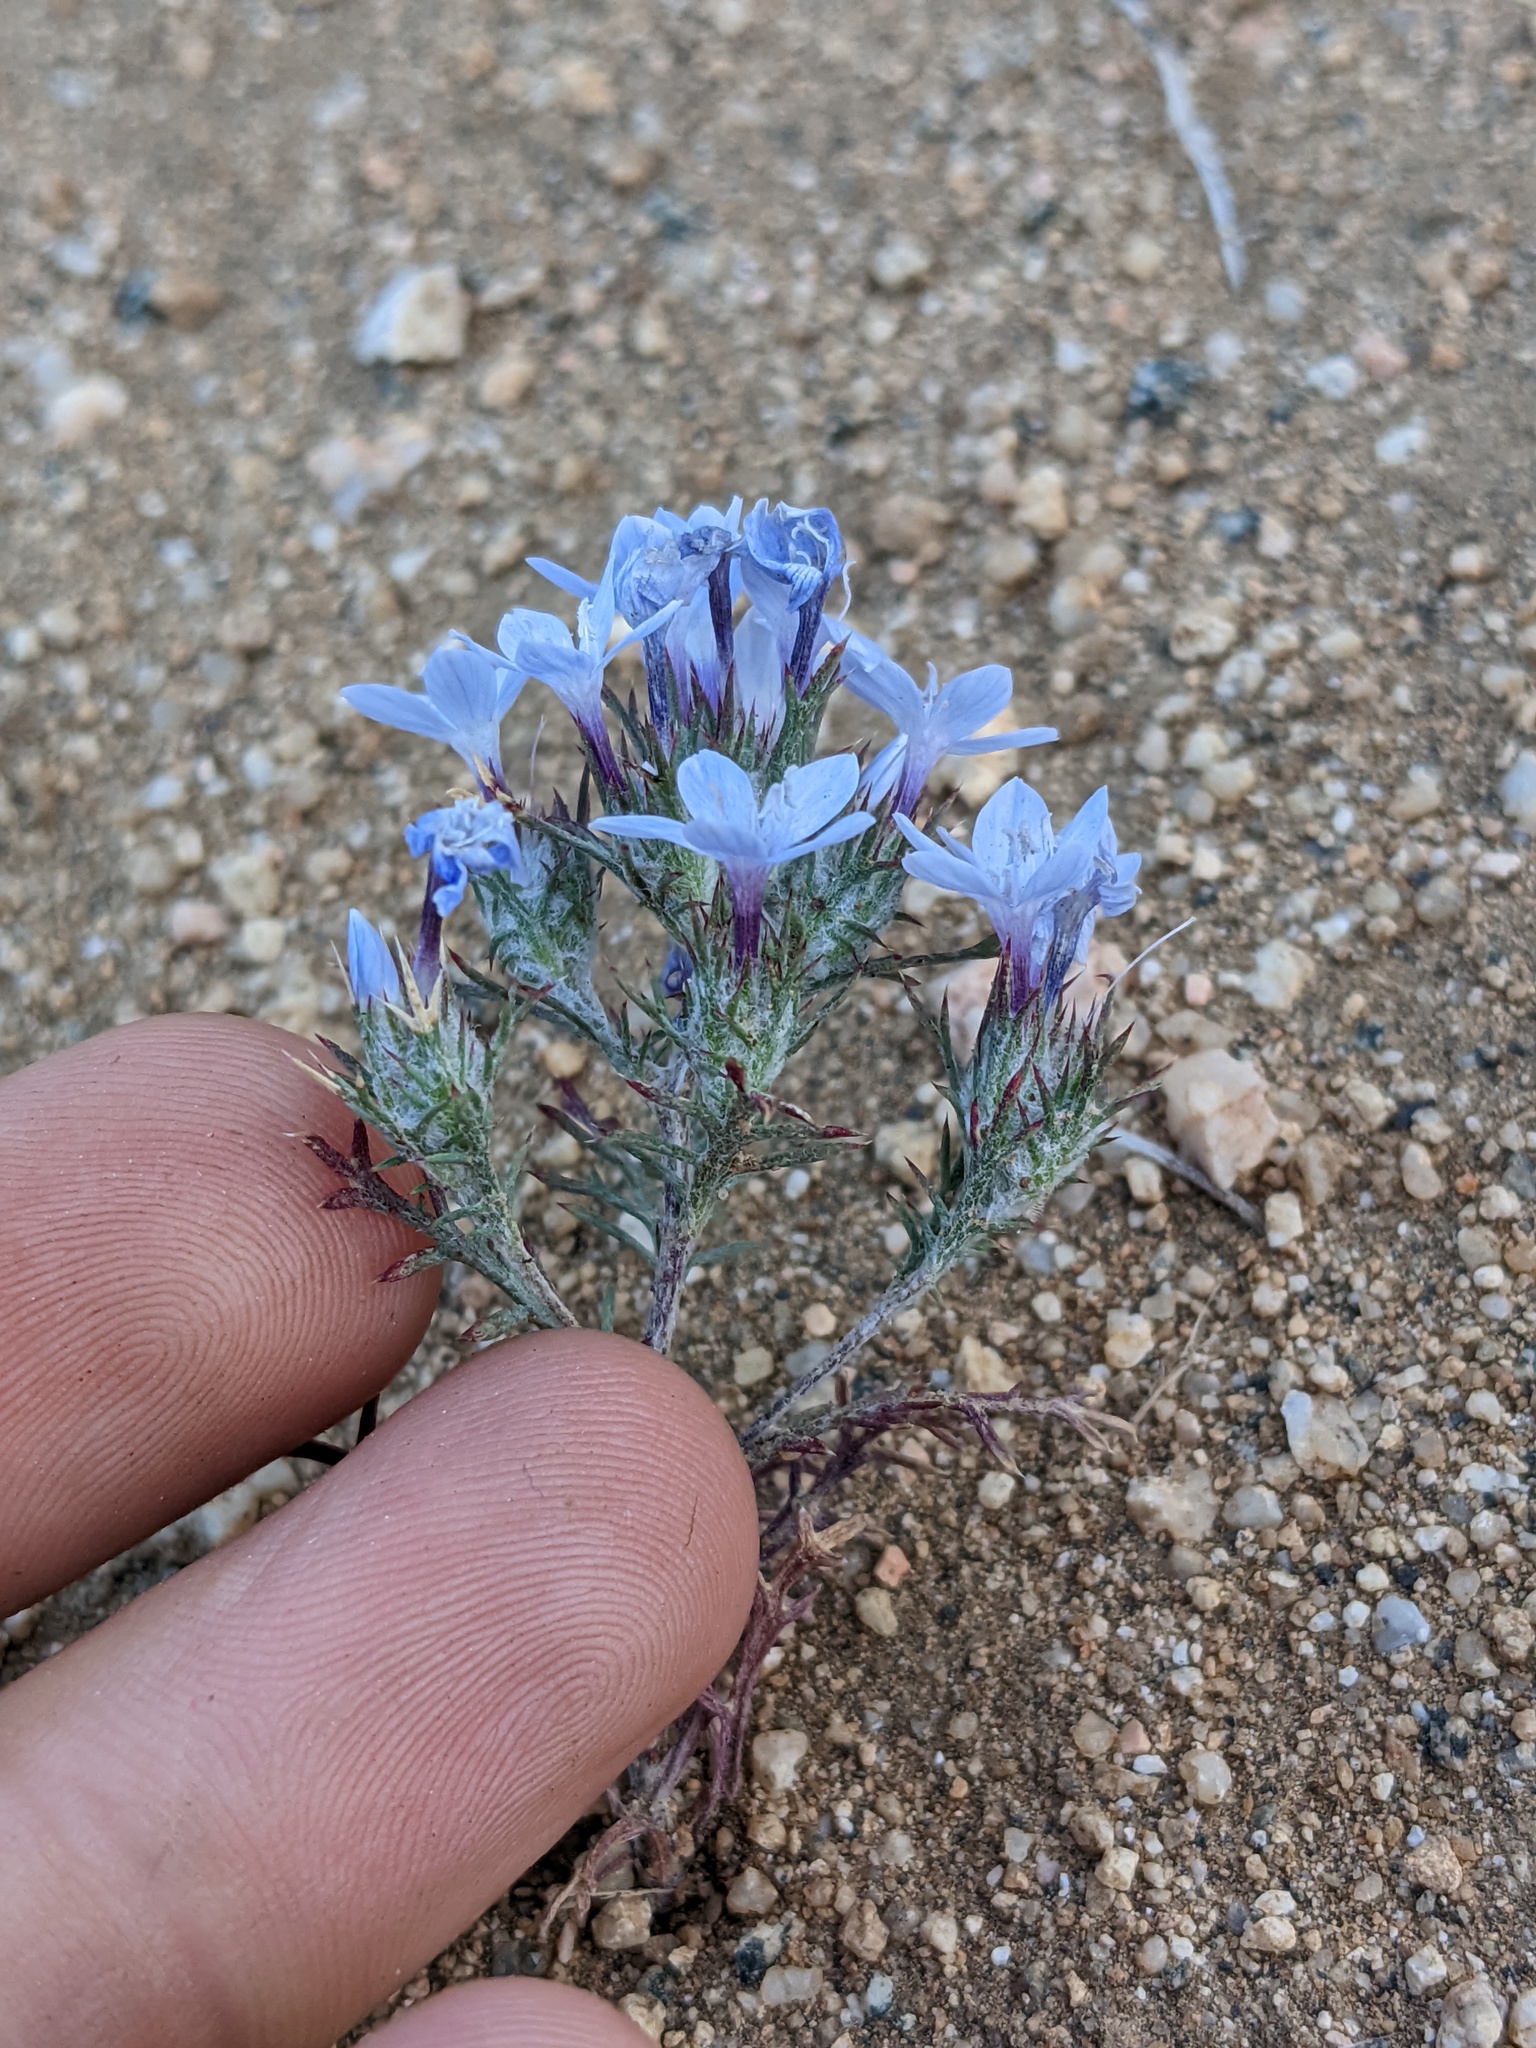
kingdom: Plantae
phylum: Tracheophyta
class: Magnoliopsida
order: Ericales
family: Polemoniaceae
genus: Eriastrum
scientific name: Eriastrum pluriflorum
